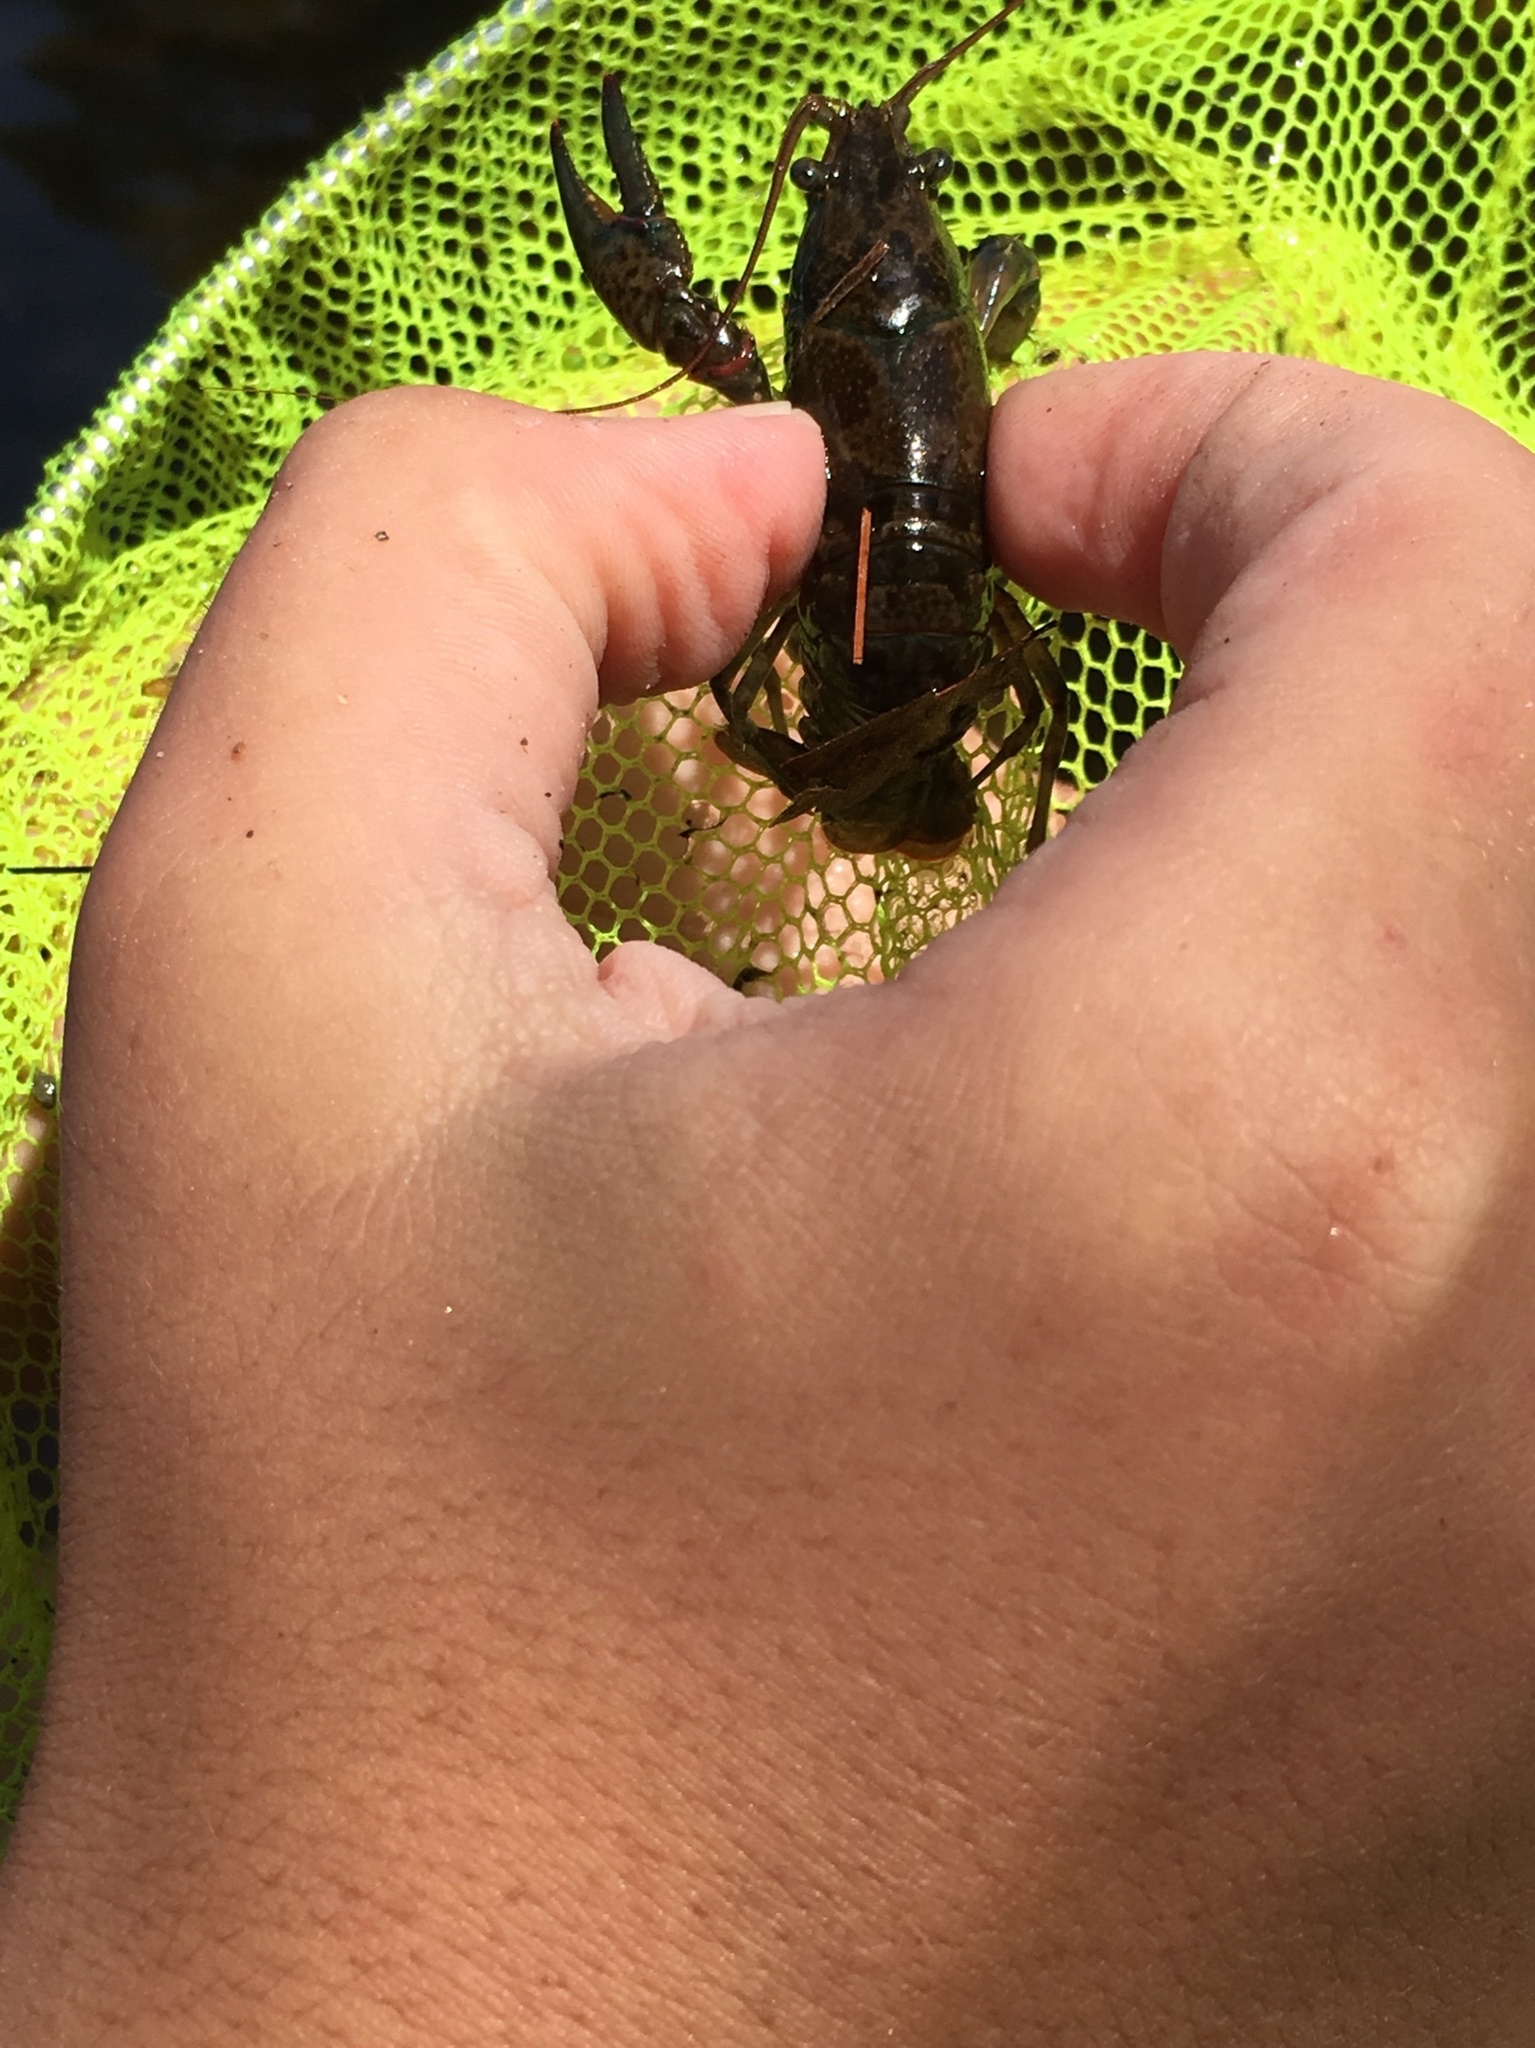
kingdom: Animalia
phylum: Arthropoda
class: Malacostraca
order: Decapoda
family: Cambaridae
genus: Faxonius
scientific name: Faxonius virilis
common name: Virile crayfish
